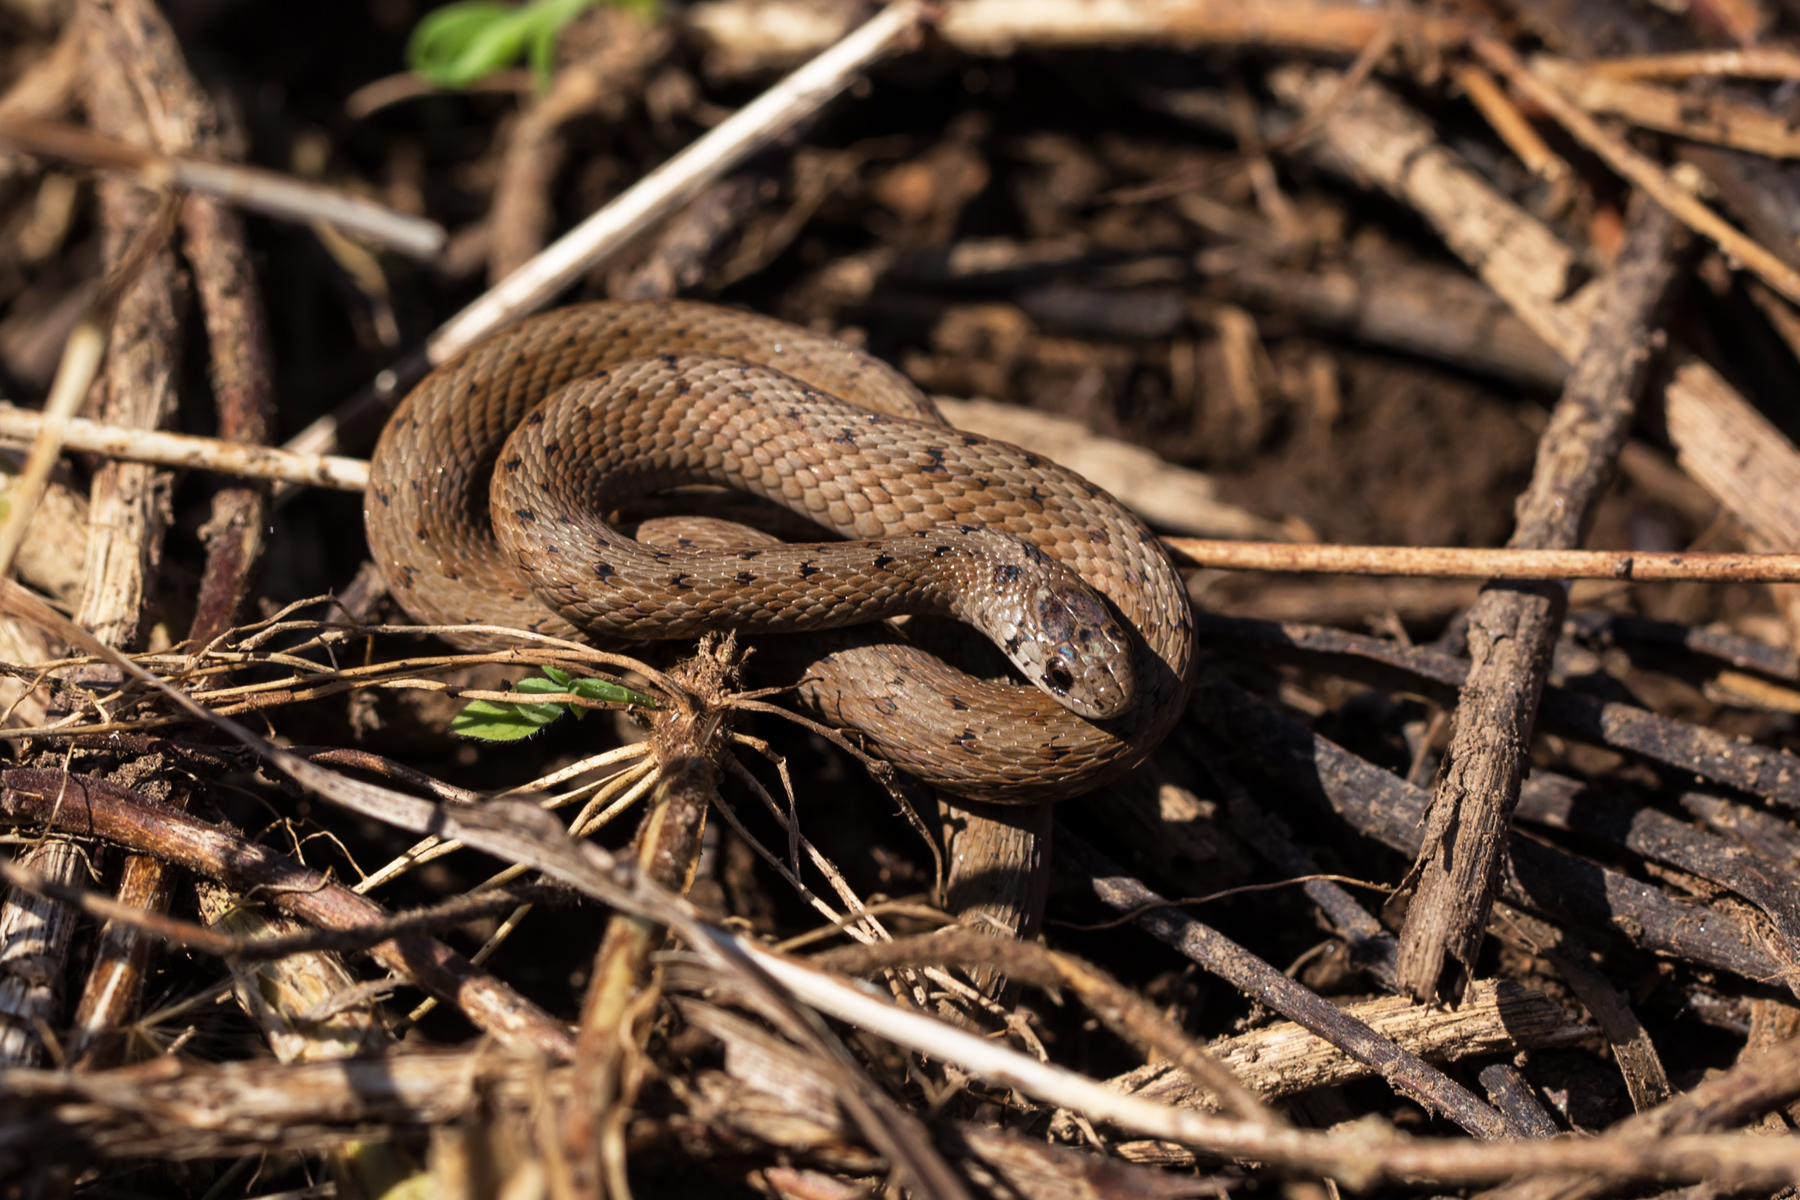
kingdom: Animalia
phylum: Chordata
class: Squamata
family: Colubridae
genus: Storeria
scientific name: Storeria dekayi
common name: (dekay’s) brown snake
